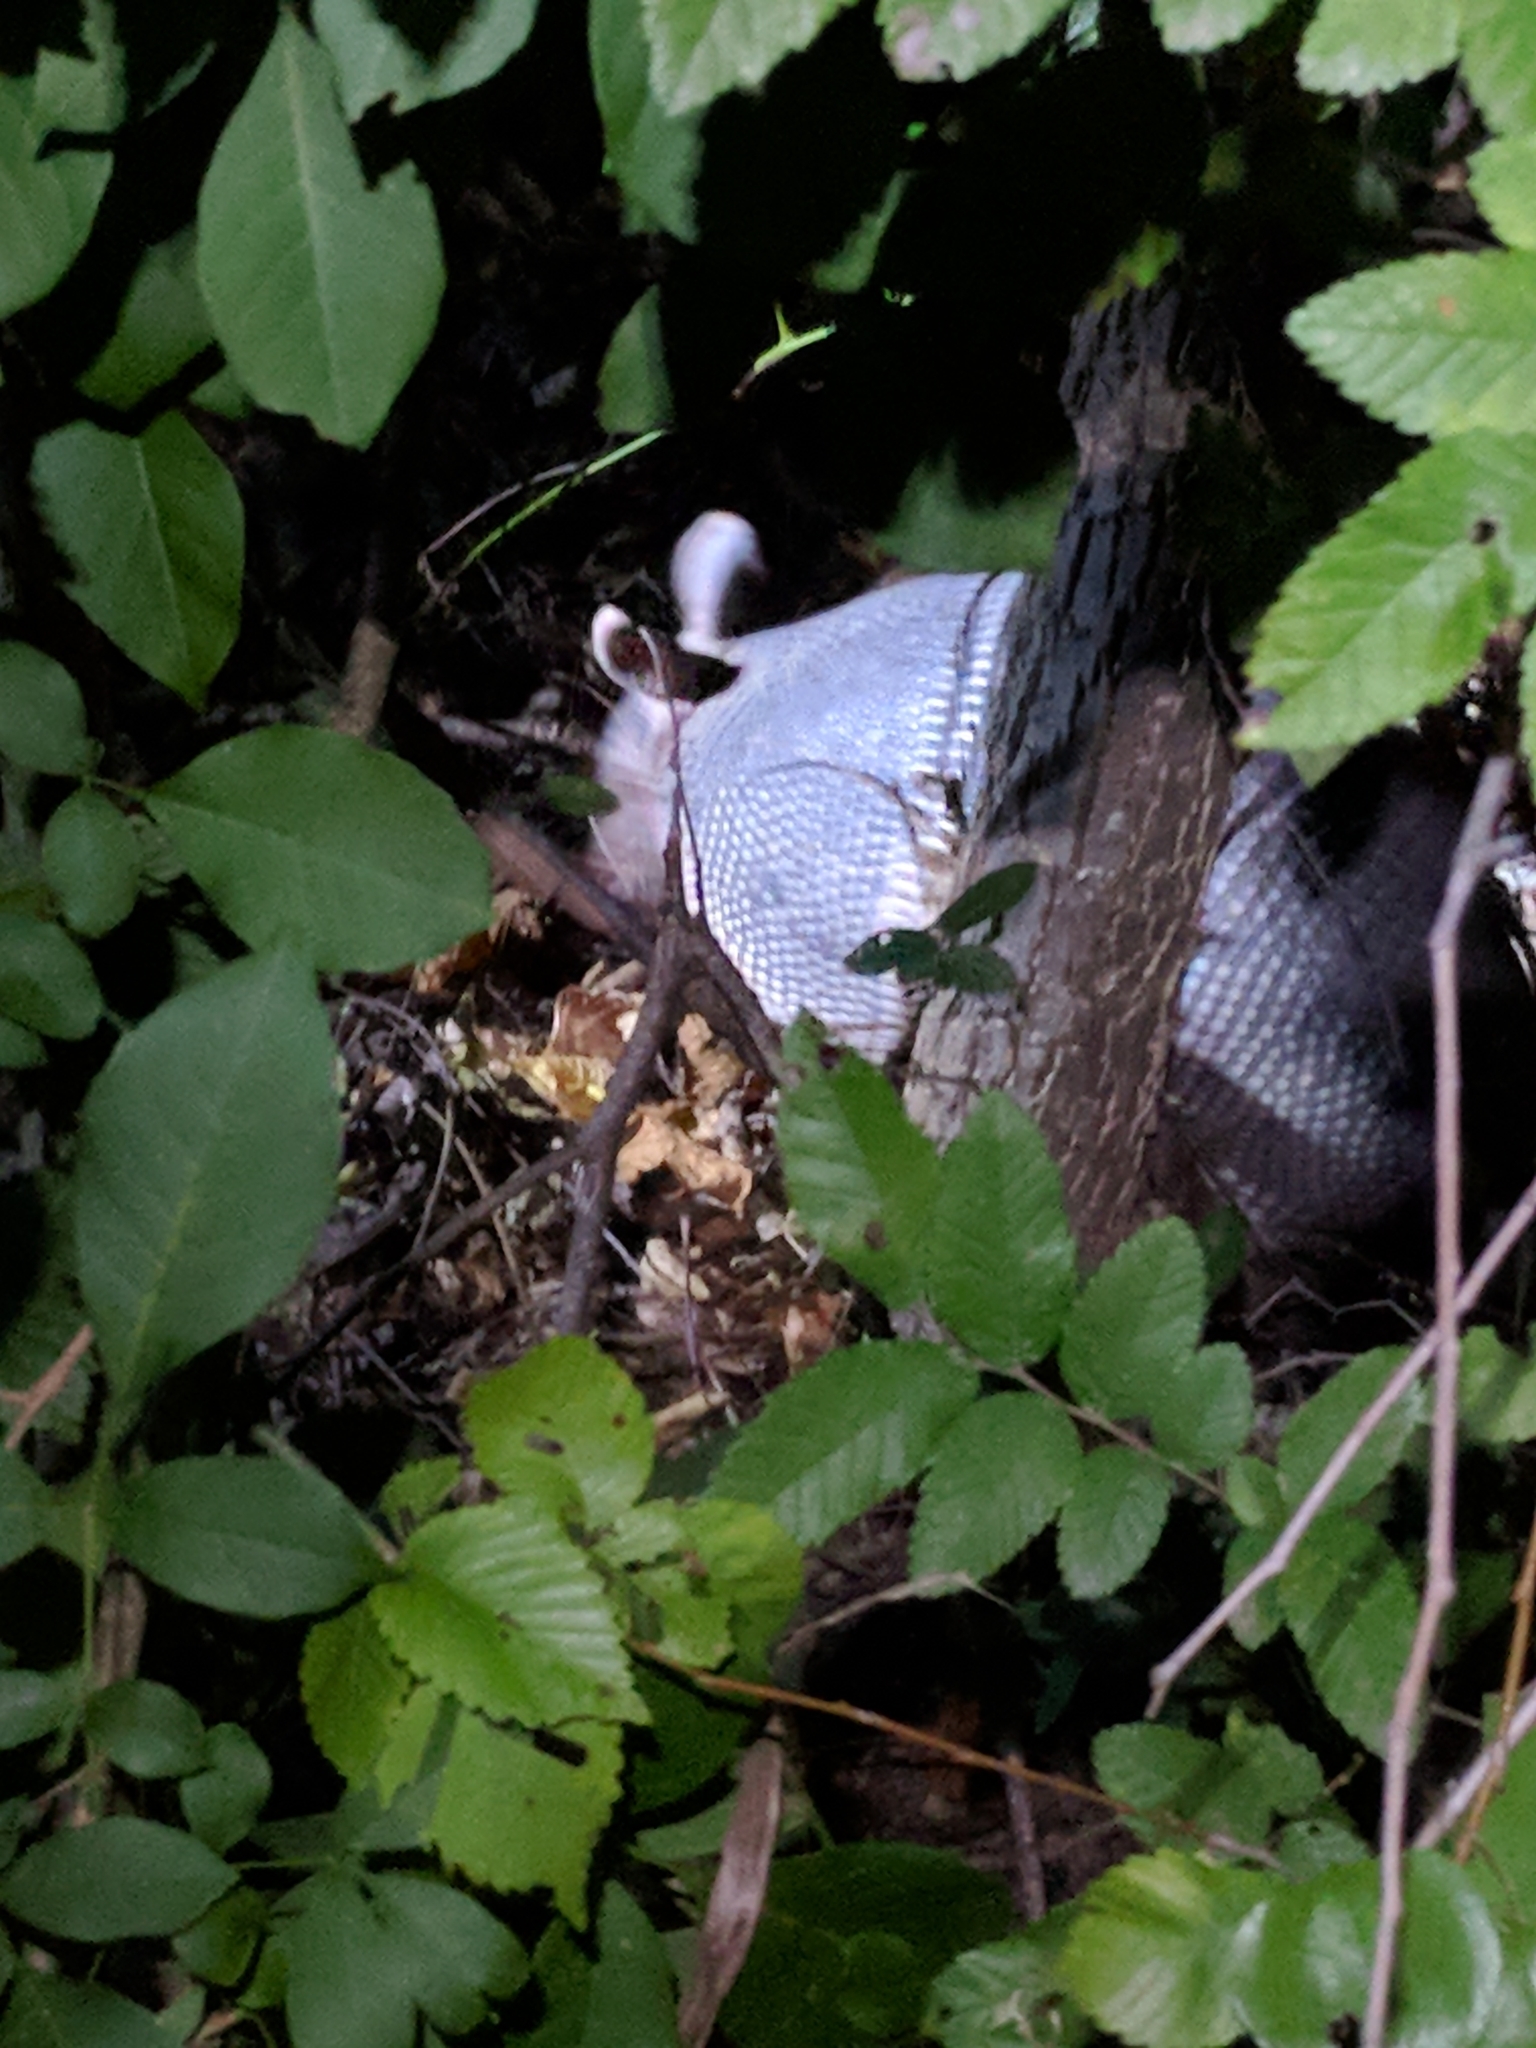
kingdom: Animalia
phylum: Chordata
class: Mammalia
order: Cingulata
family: Dasypodidae
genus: Dasypus
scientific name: Dasypus novemcinctus
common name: Nine-banded armadillo
